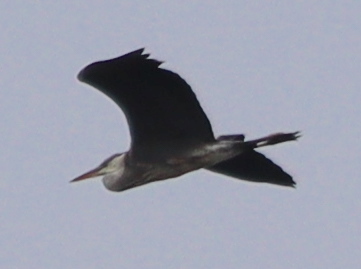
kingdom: Animalia
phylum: Chordata
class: Aves
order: Pelecaniformes
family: Ardeidae
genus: Ardea
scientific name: Ardea cinerea
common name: Grey heron
